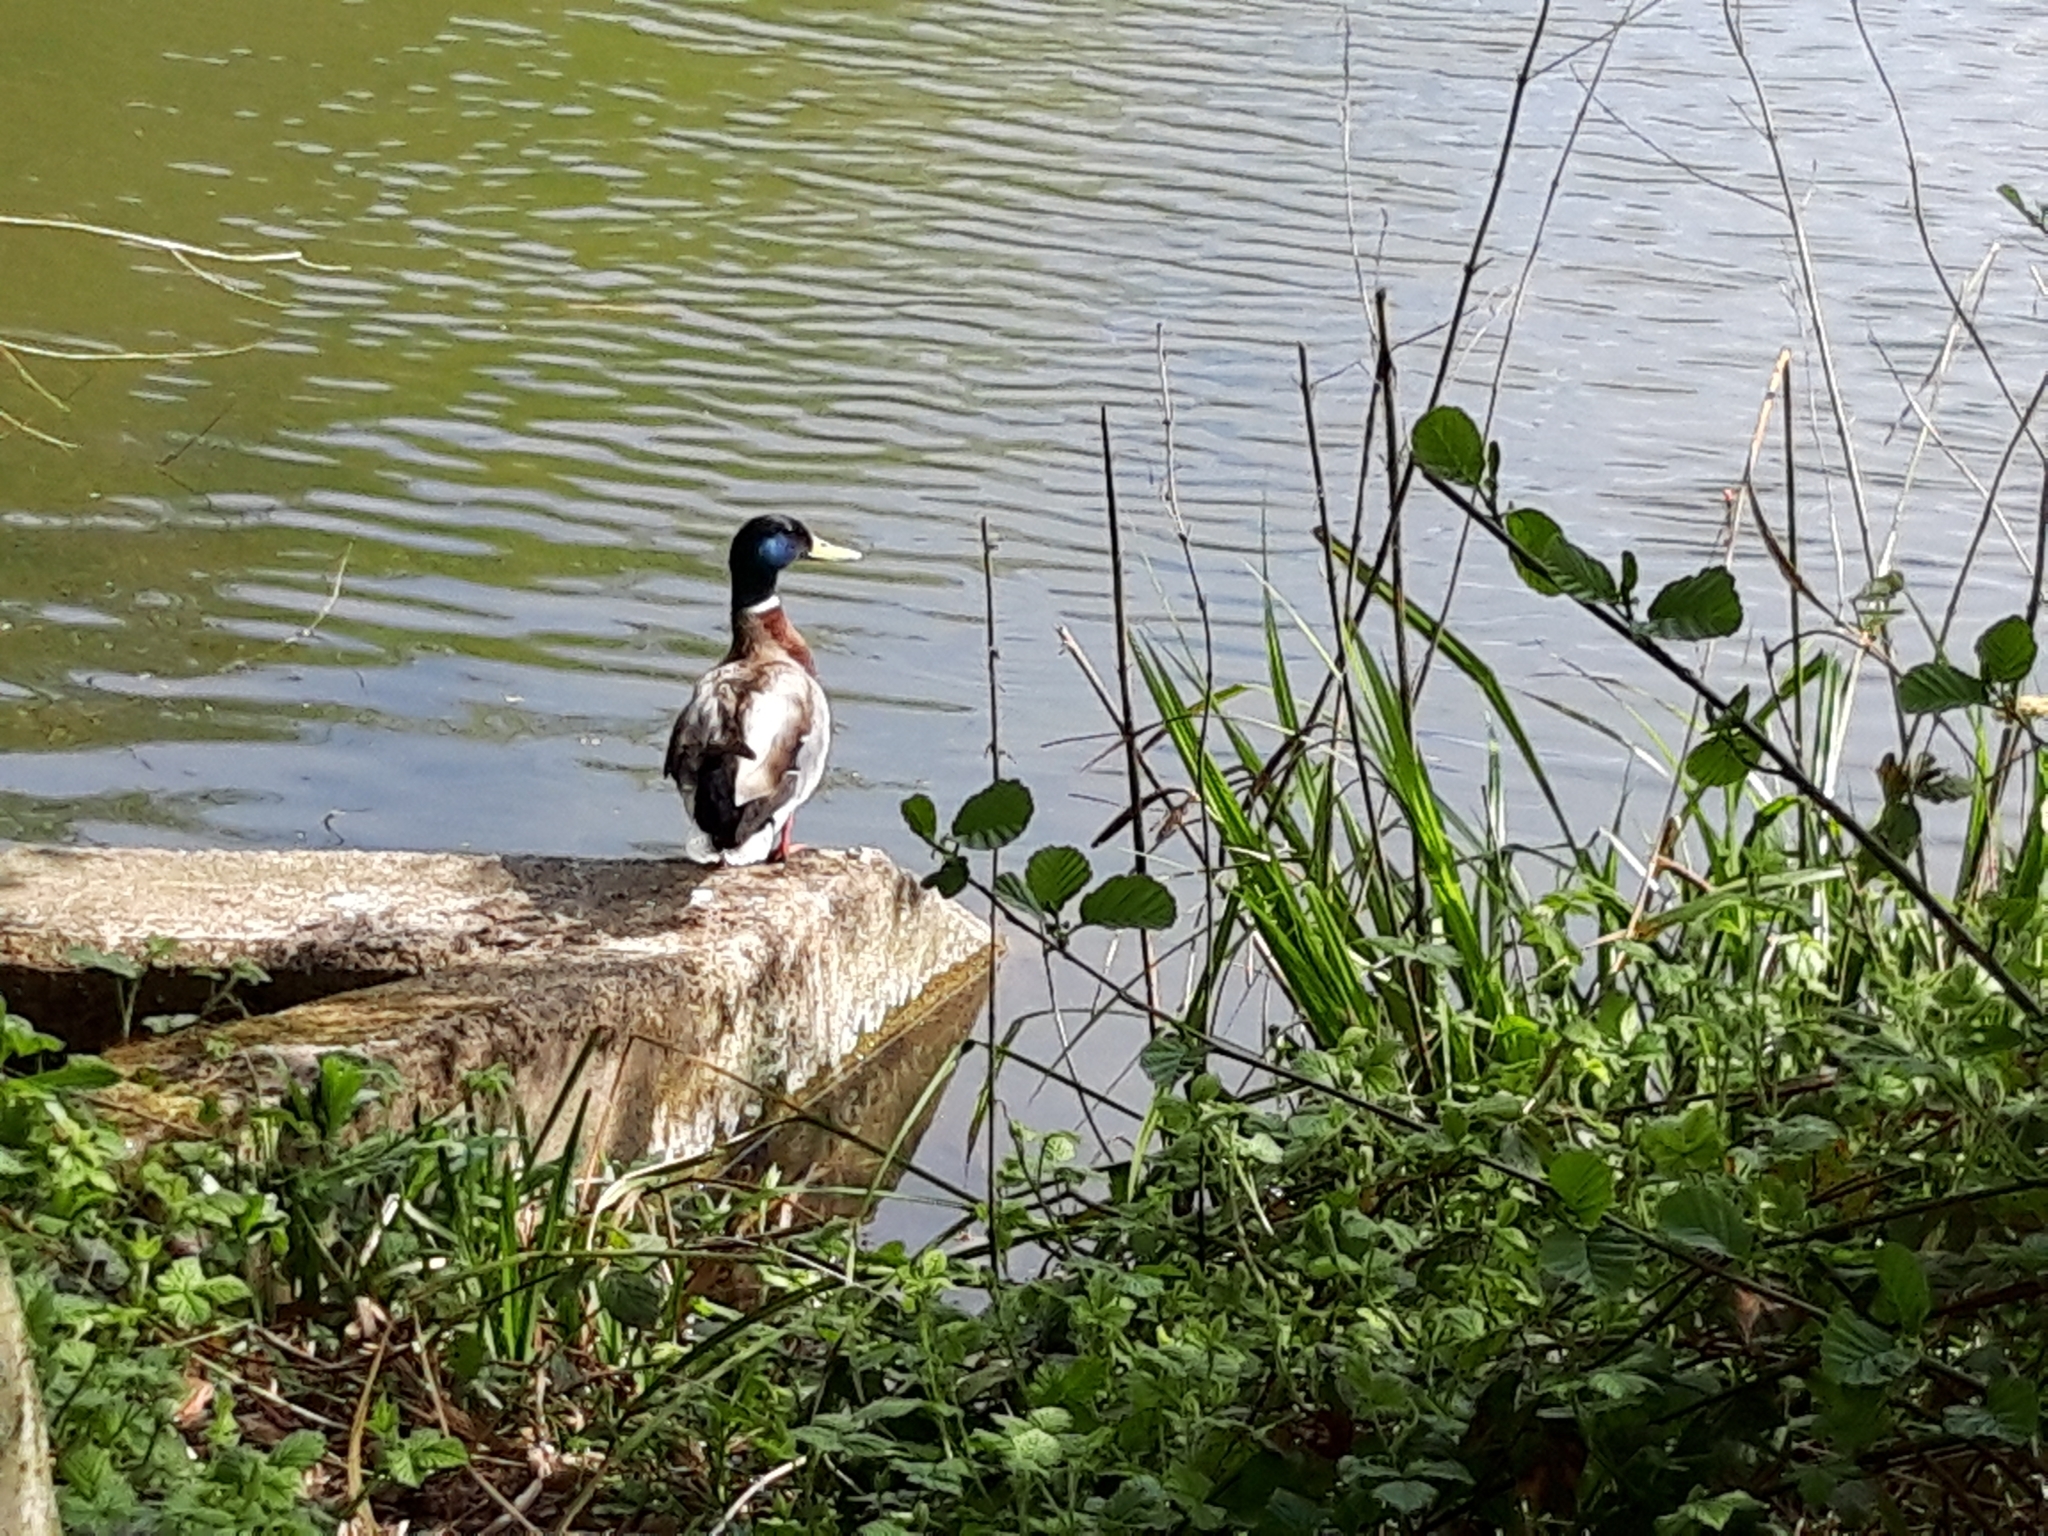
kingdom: Animalia
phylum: Chordata
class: Aves
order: Anseriformes
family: Anatidae
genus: Anas
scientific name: Anas platyrhynchos
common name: Mallard
